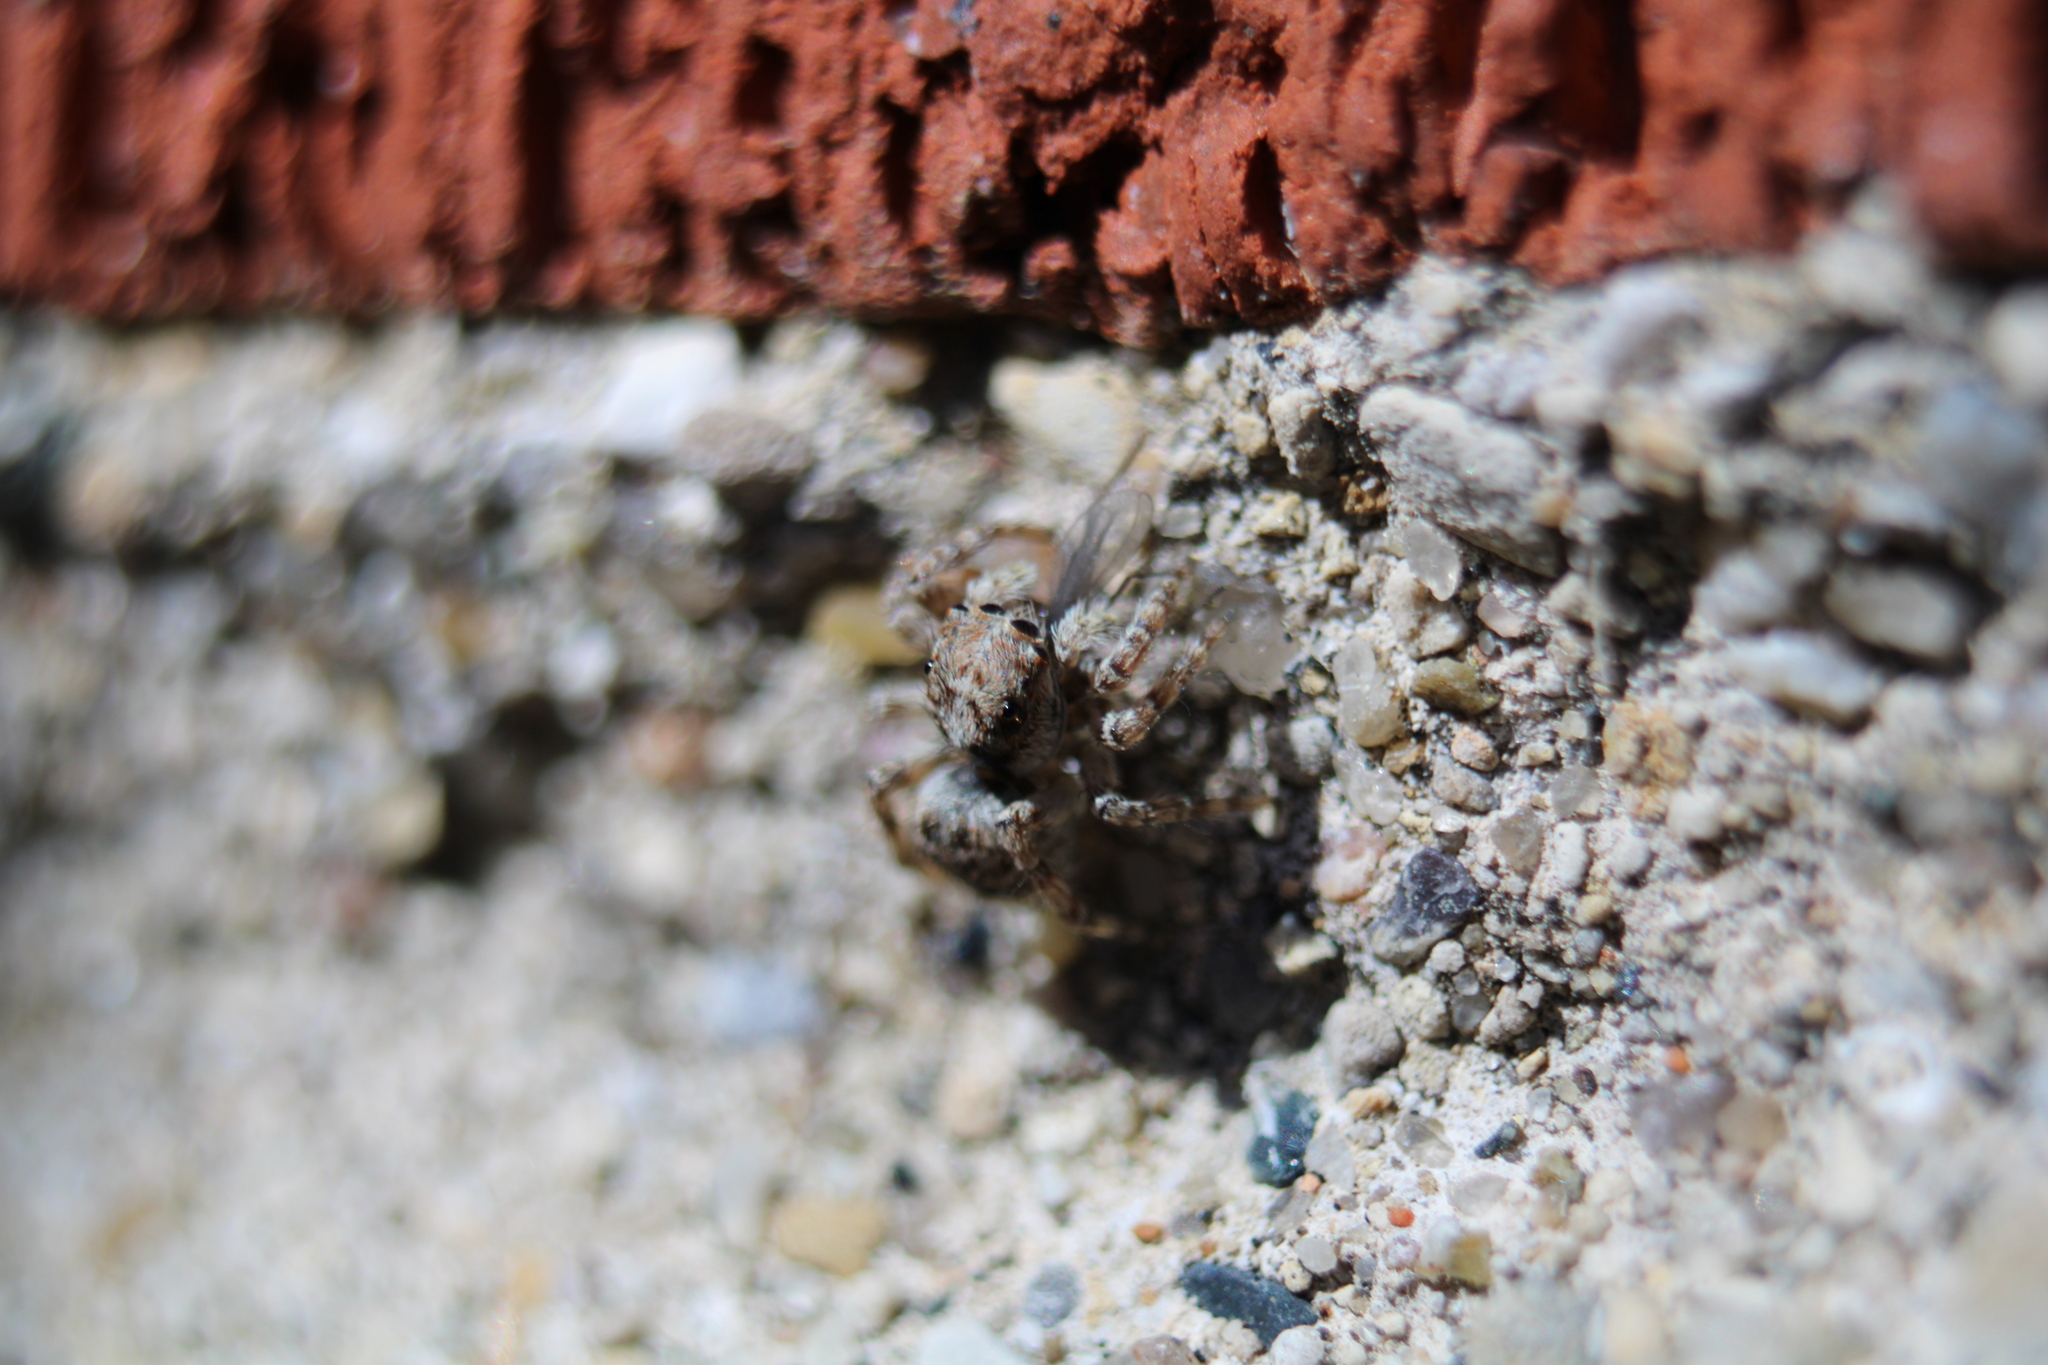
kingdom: Animalia
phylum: Arthropoda
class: Arachnida
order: Araneae
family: Salticidae
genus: Attulus
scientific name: Attulus fasciger
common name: Asiatic wall jumping spider
